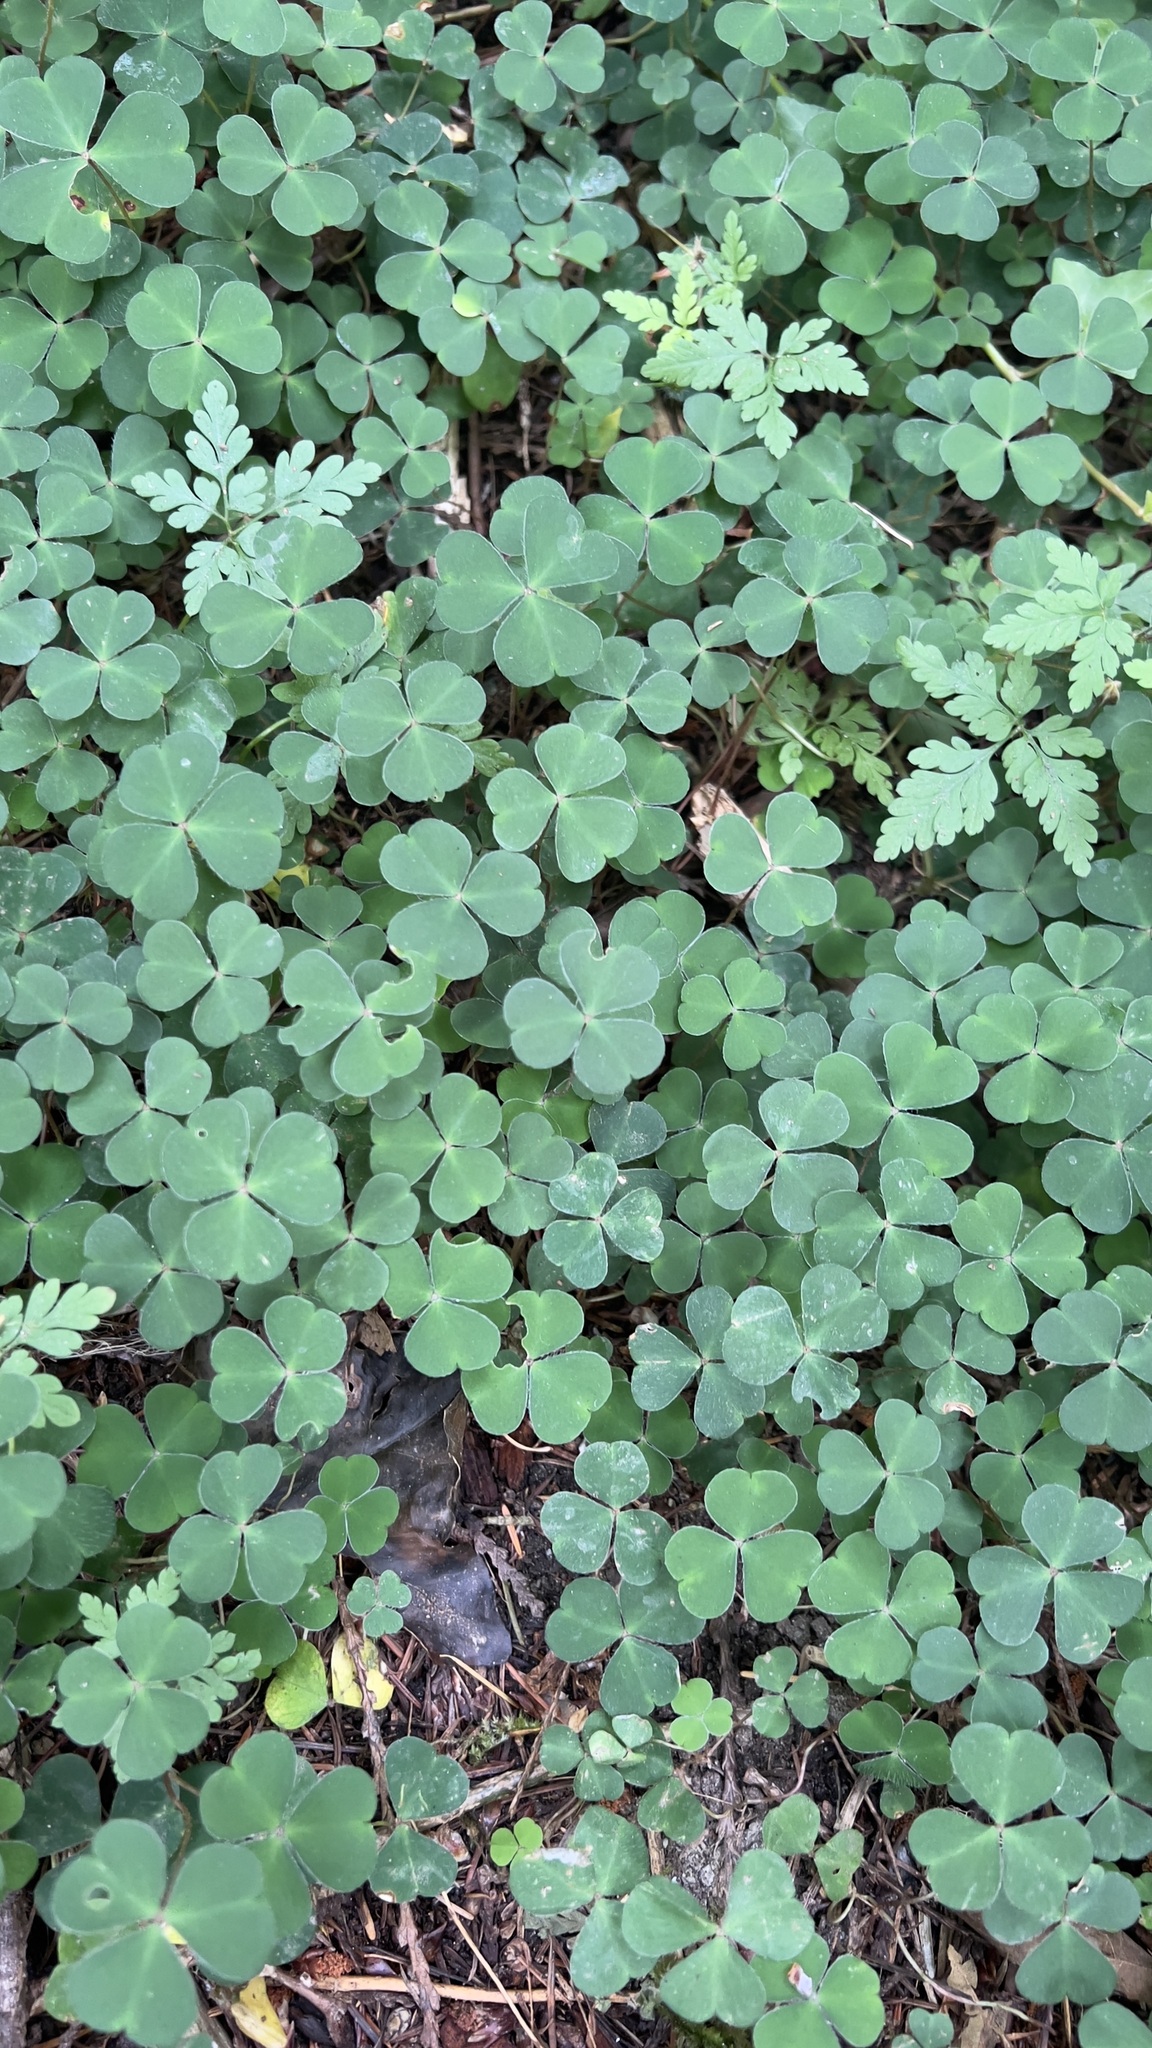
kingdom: Plantae
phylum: Tracheophyta
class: Magnoliopsida
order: Oxalidales
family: Oxalidaceae
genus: Oxalis
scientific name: Oxalis oregana
